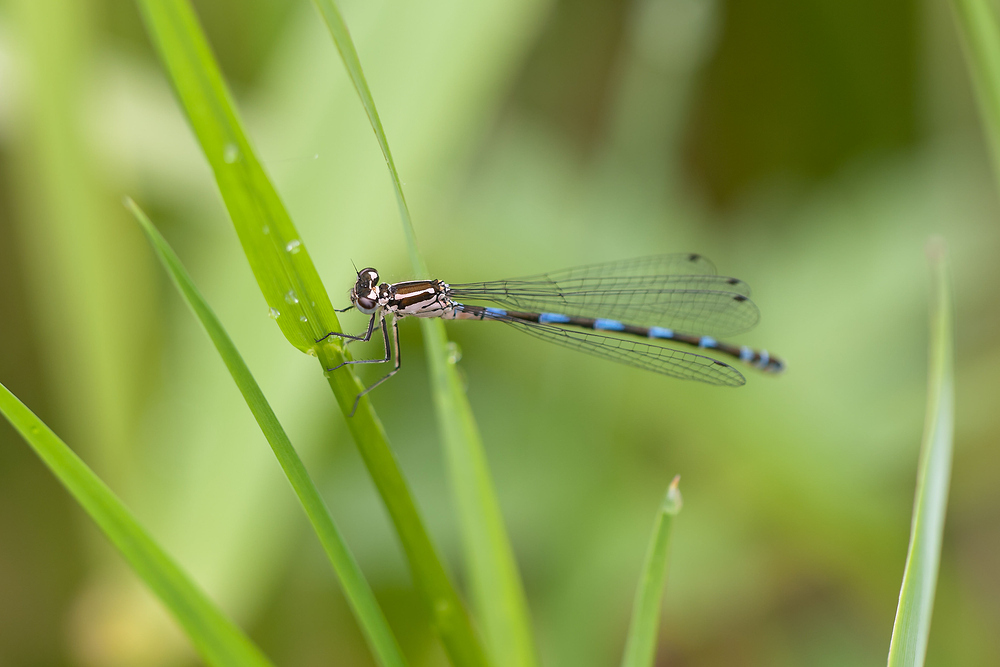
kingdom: Animalia
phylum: Arthropoda
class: Insecta
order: Odonata
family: Coenagrionidae
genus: Coenagrion
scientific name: Coenagrion pulchellum
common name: Variable bluet
